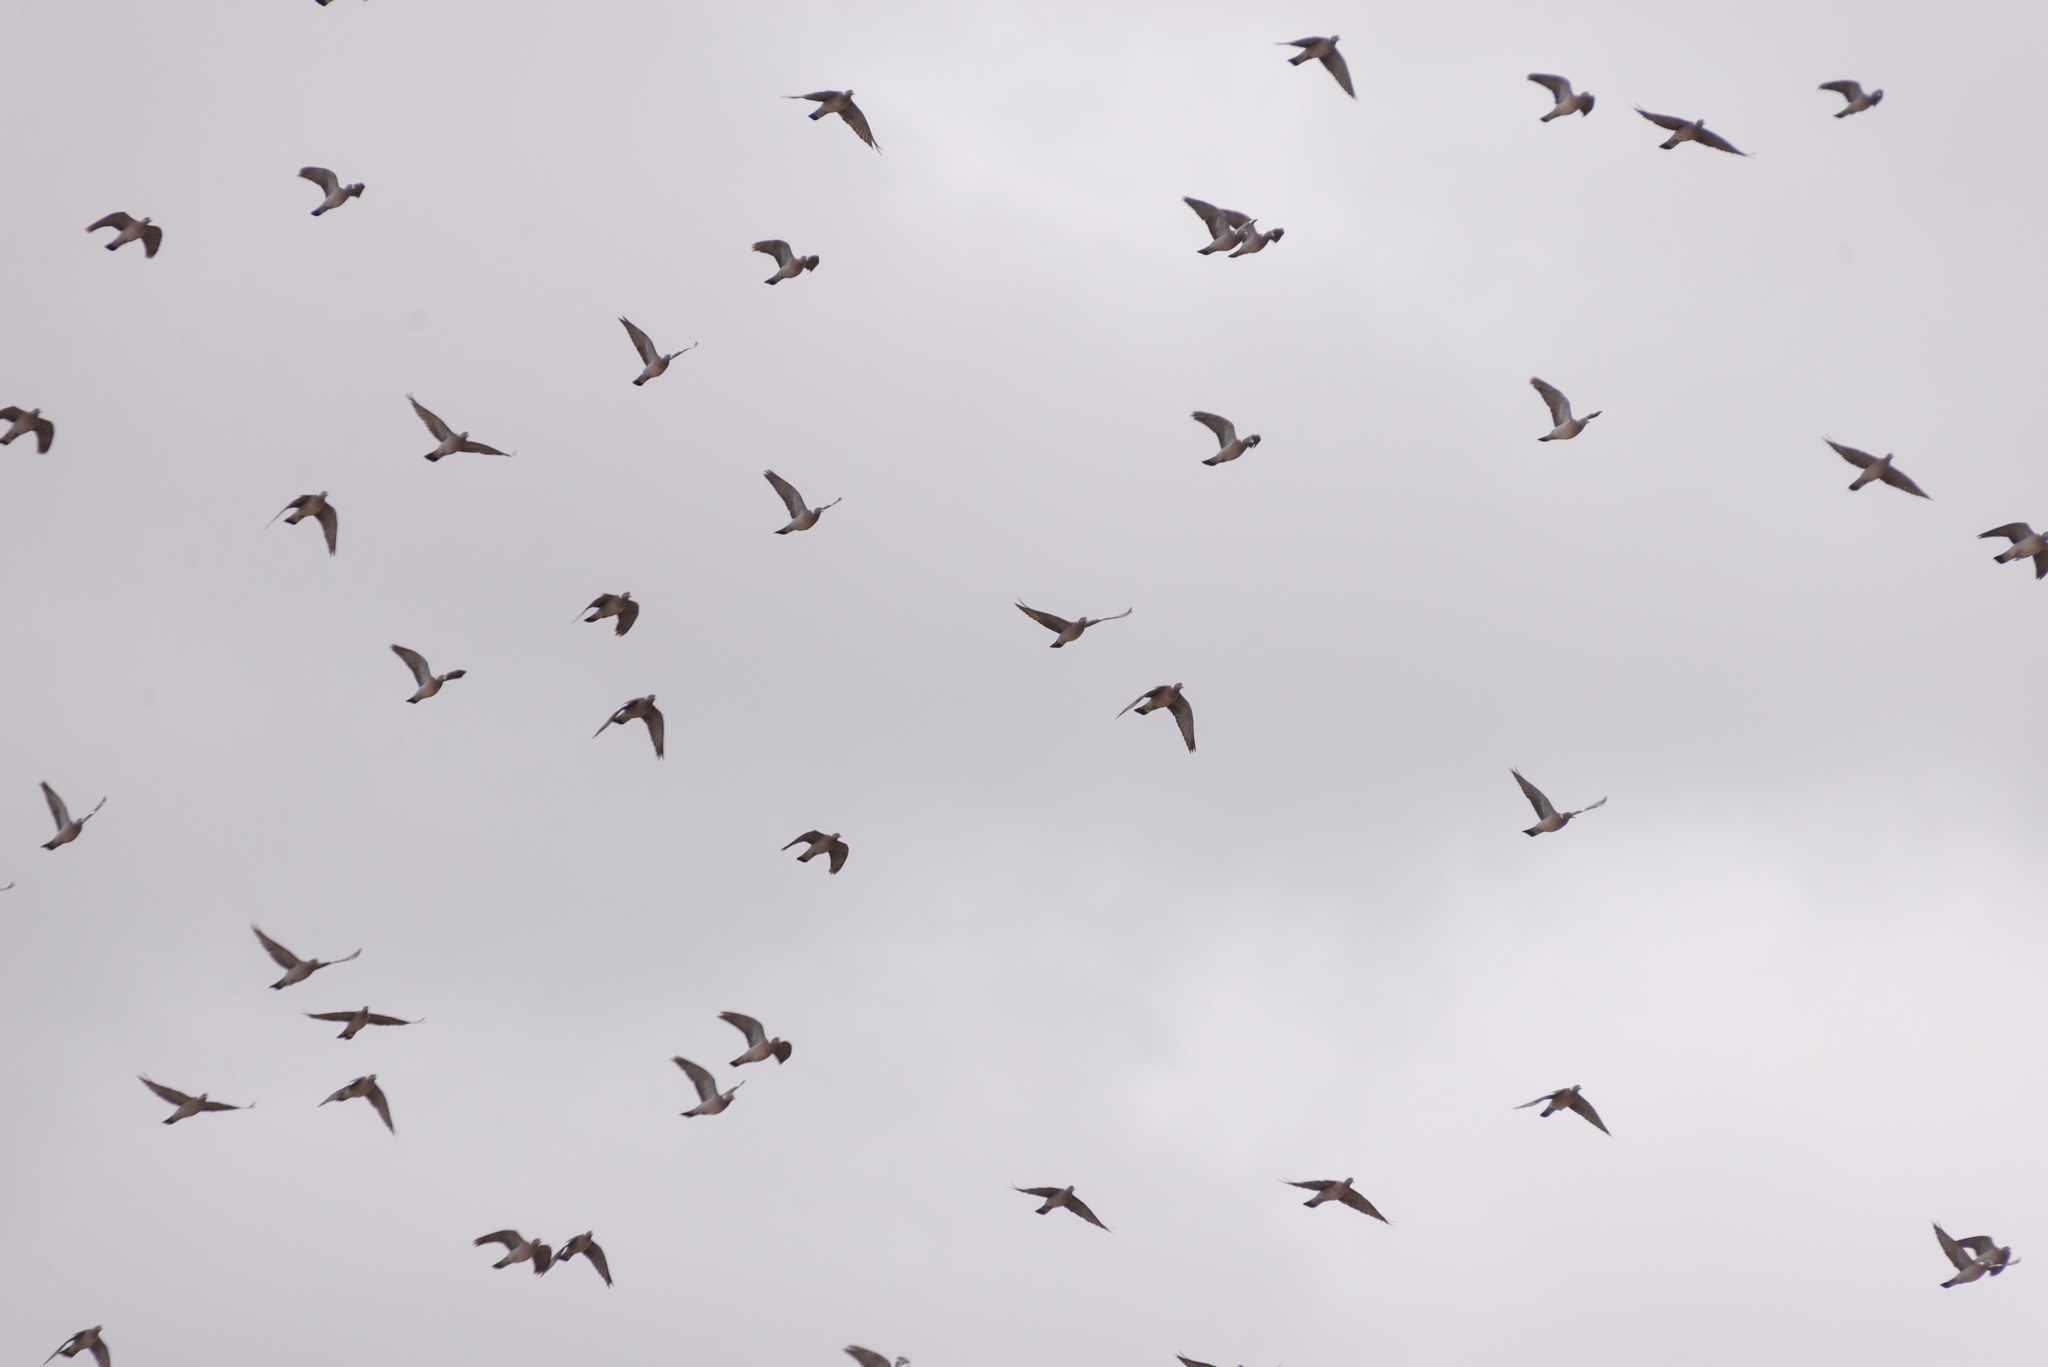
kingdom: Animalia
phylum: Chordata
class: Aves
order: Columbiformes
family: Columbidae
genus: Columba
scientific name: Columba palumbus
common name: Common wood pigeon
